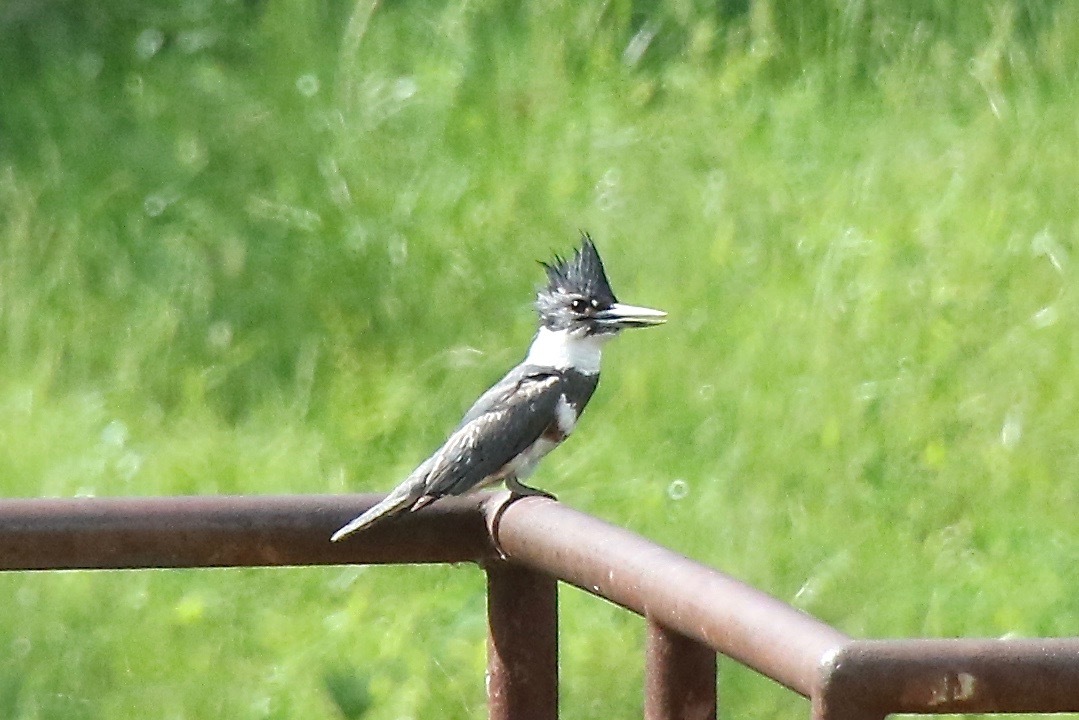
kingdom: Animalia
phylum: Chordata
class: Aves
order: Coraciiformes
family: Alcedinidae
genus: Megaceryle
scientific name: Megaceryle alcyon
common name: Belted kingfisher
